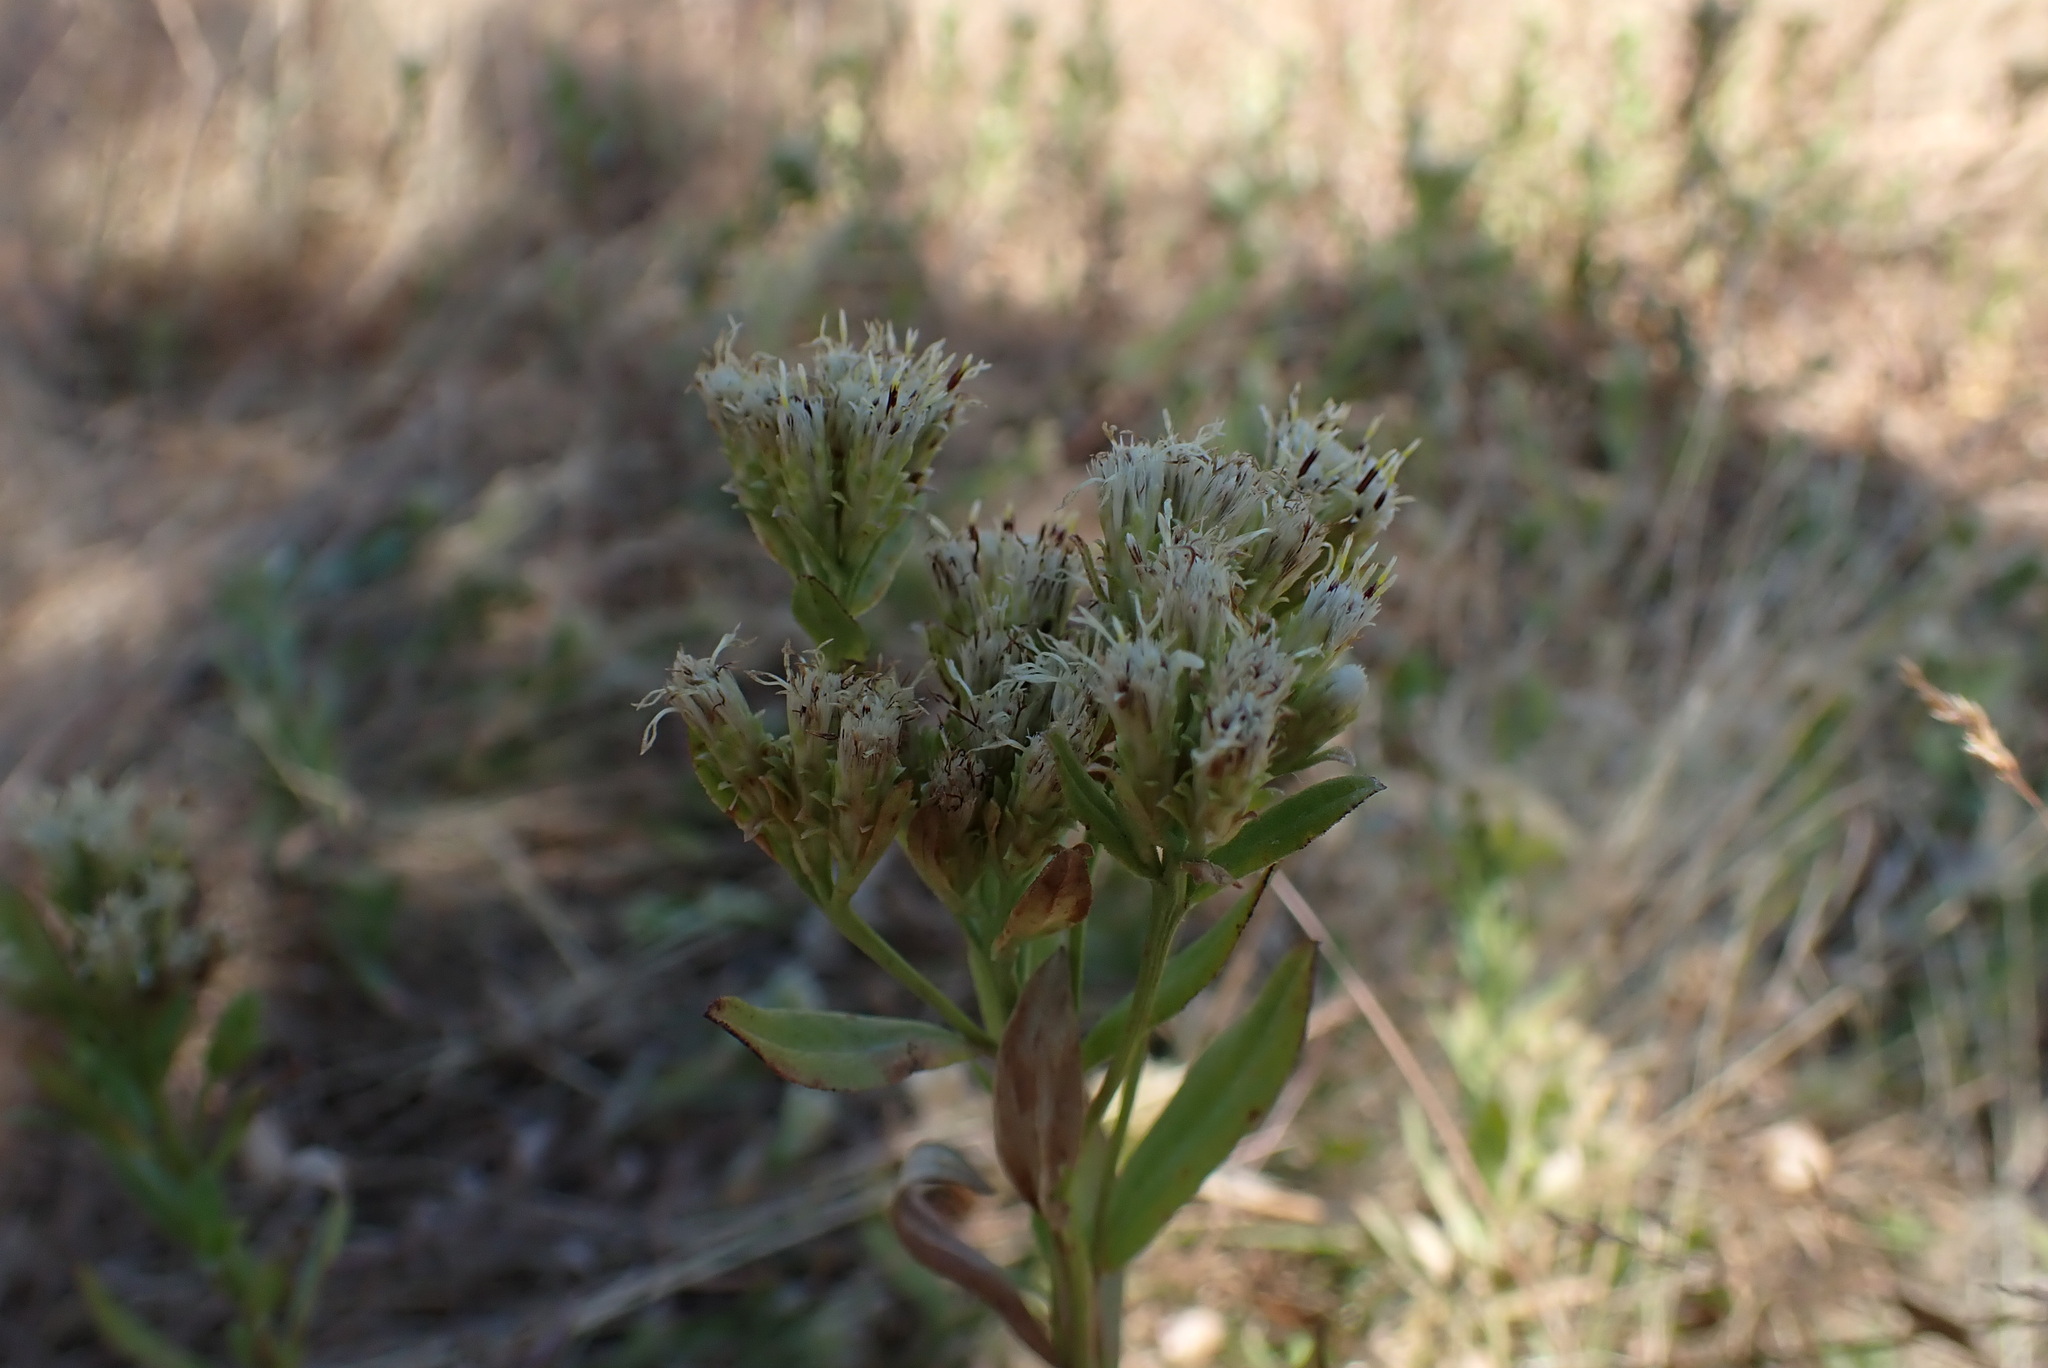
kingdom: Plantae
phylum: Tracheophyta
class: Magnoliopsida
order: Asterales
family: Asteraceae
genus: Sericocarpus
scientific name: Sericocarpus rigidus
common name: Columbia white-top aster
